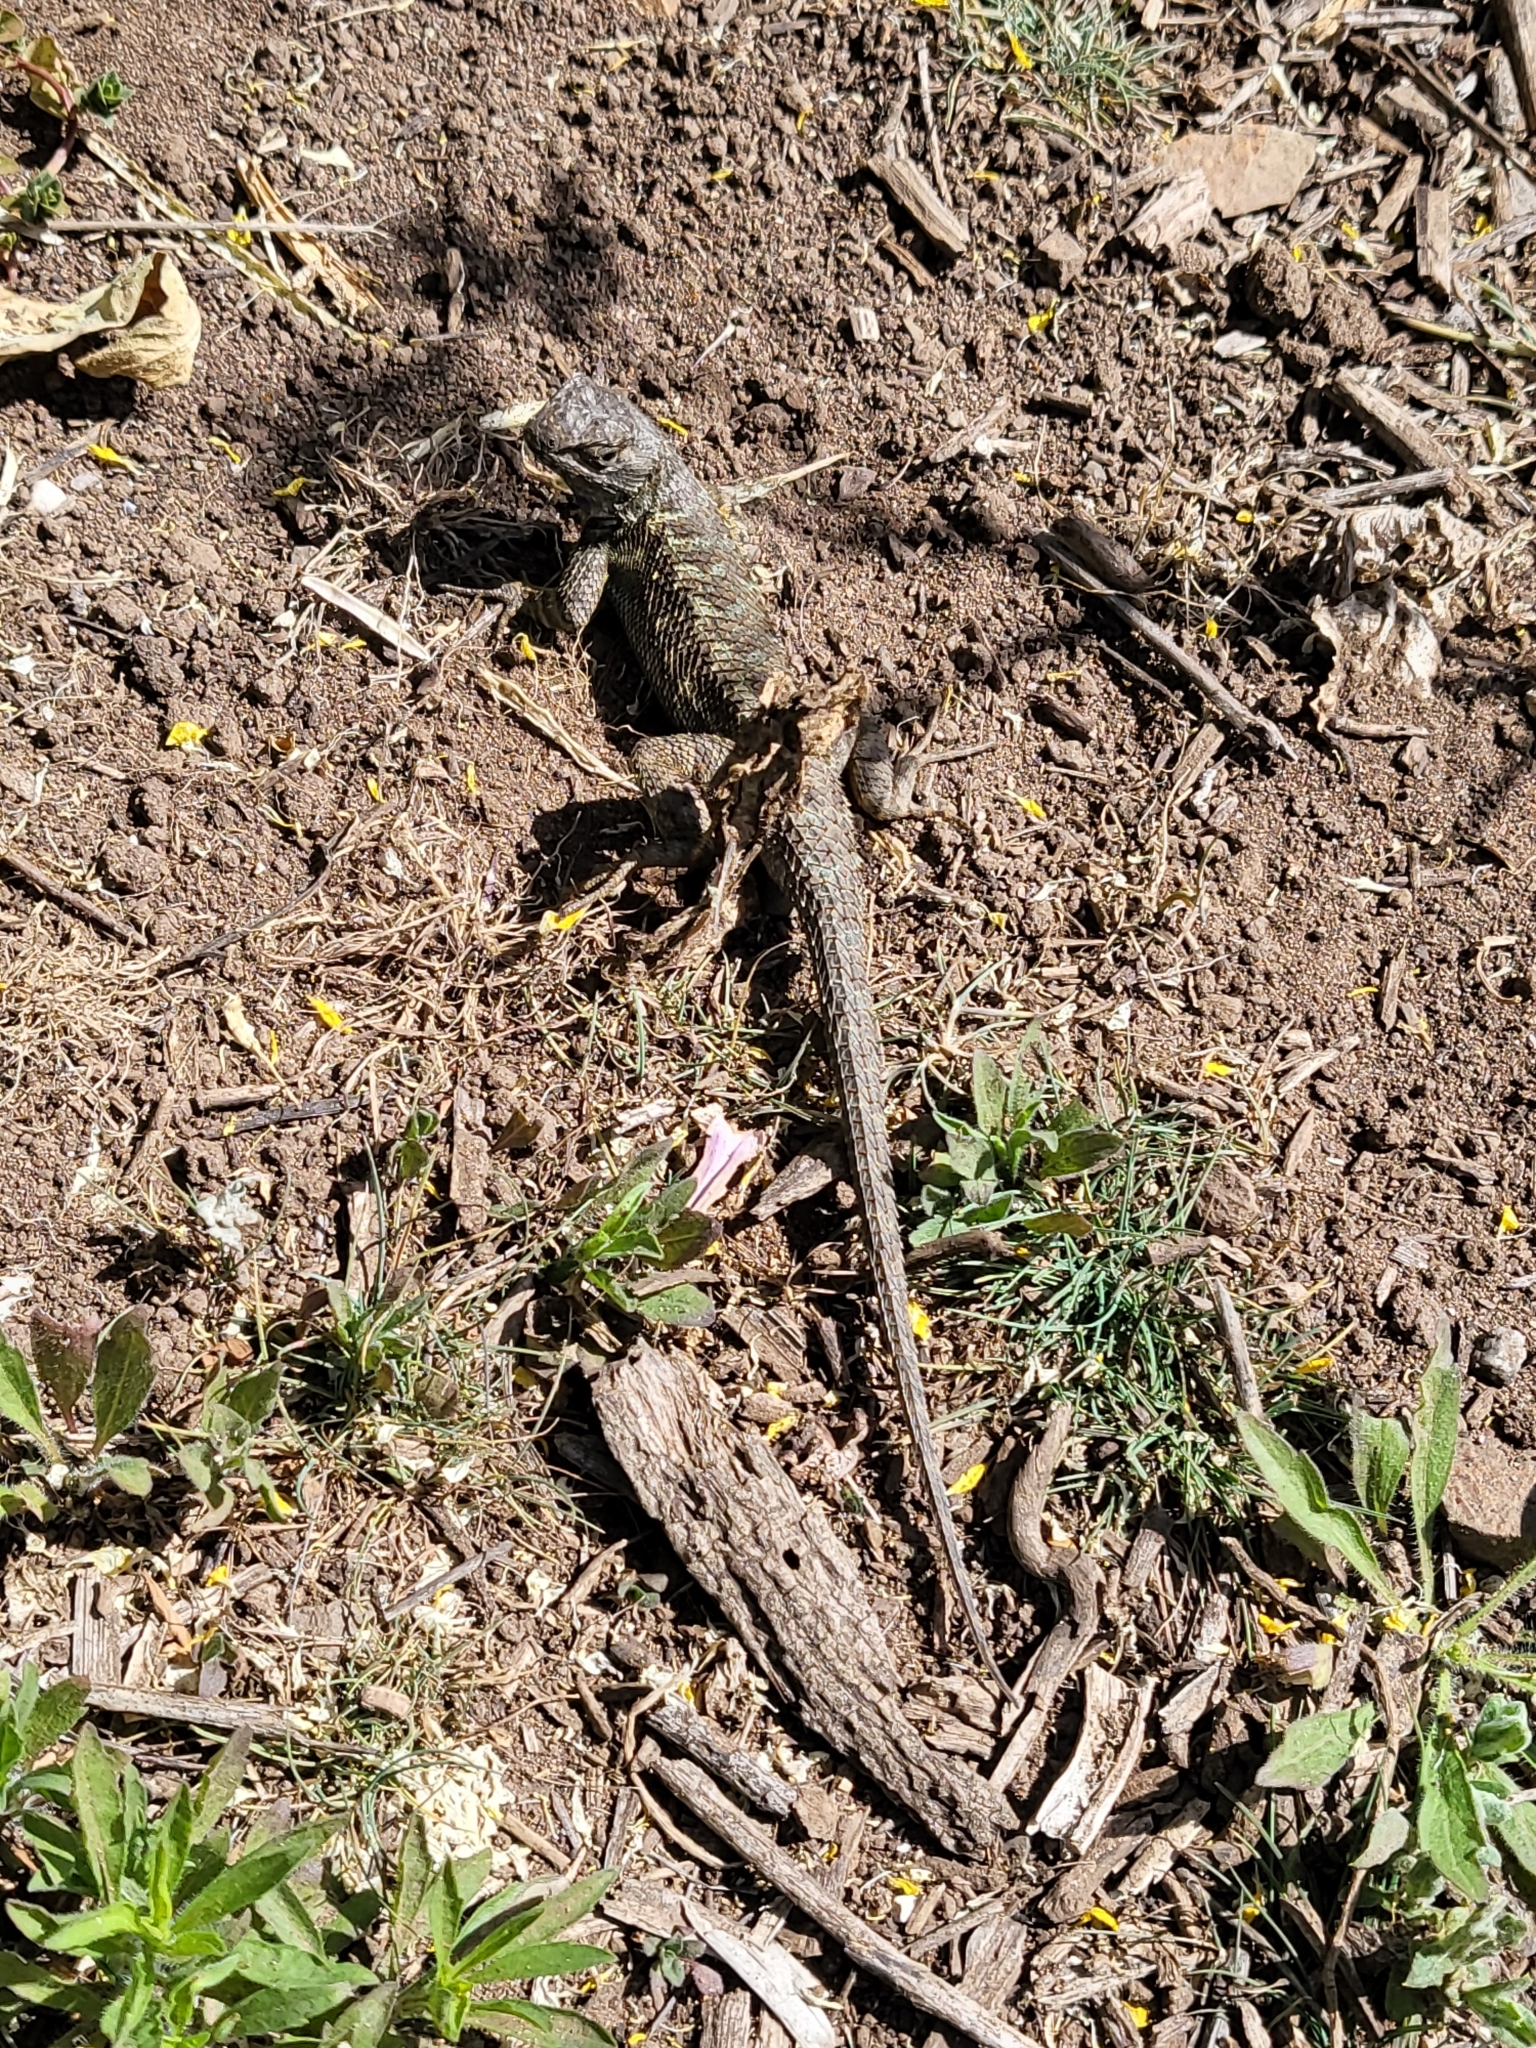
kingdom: Animalia
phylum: Chordata
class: Squamata
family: Phrynosomatidae
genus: Sceloporus
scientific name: Sceloporus occidentalis
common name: Western fence lizard
